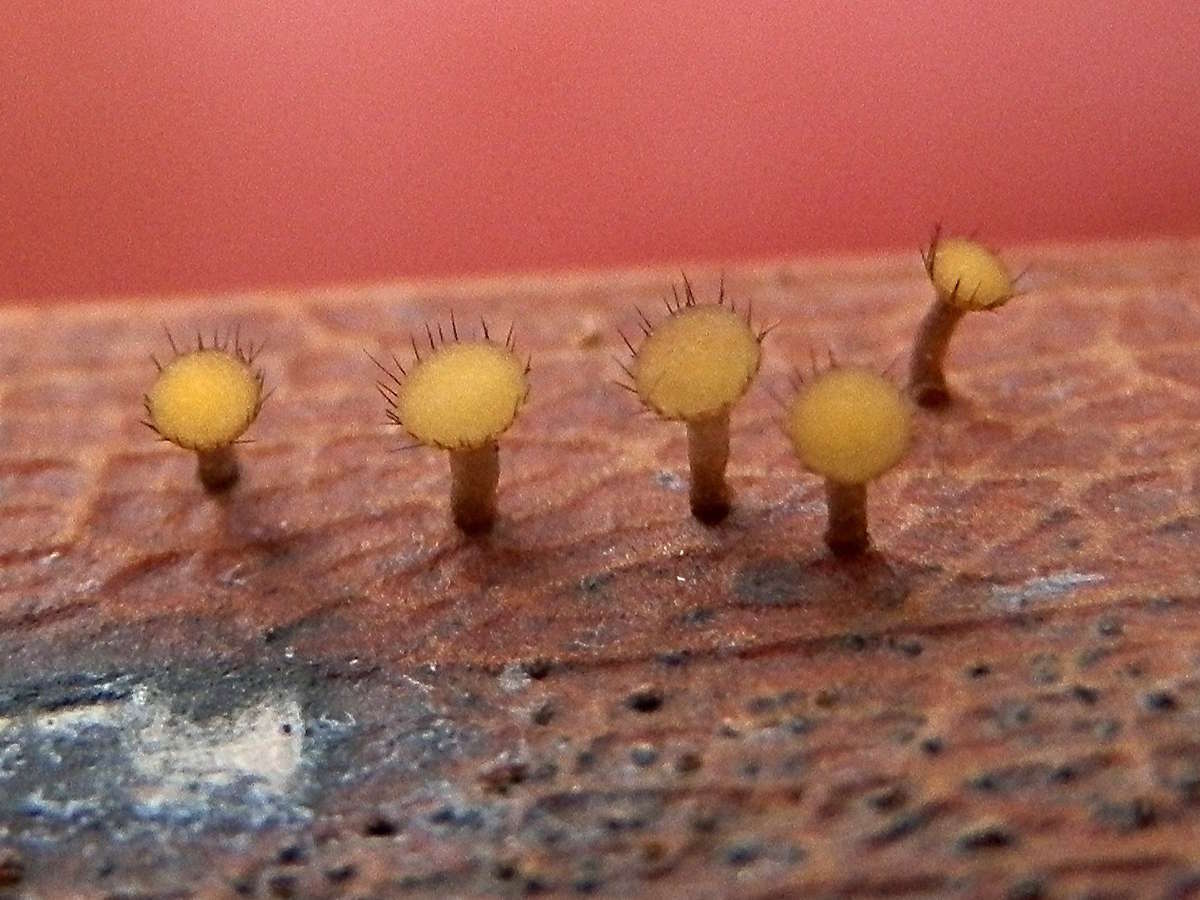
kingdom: Fungi
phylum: Ascomycota
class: Leotiomycetes
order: Helotiales
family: Helotiaceae
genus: Hymenotorrendiella
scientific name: Hymenotorrendiella eucalypti
